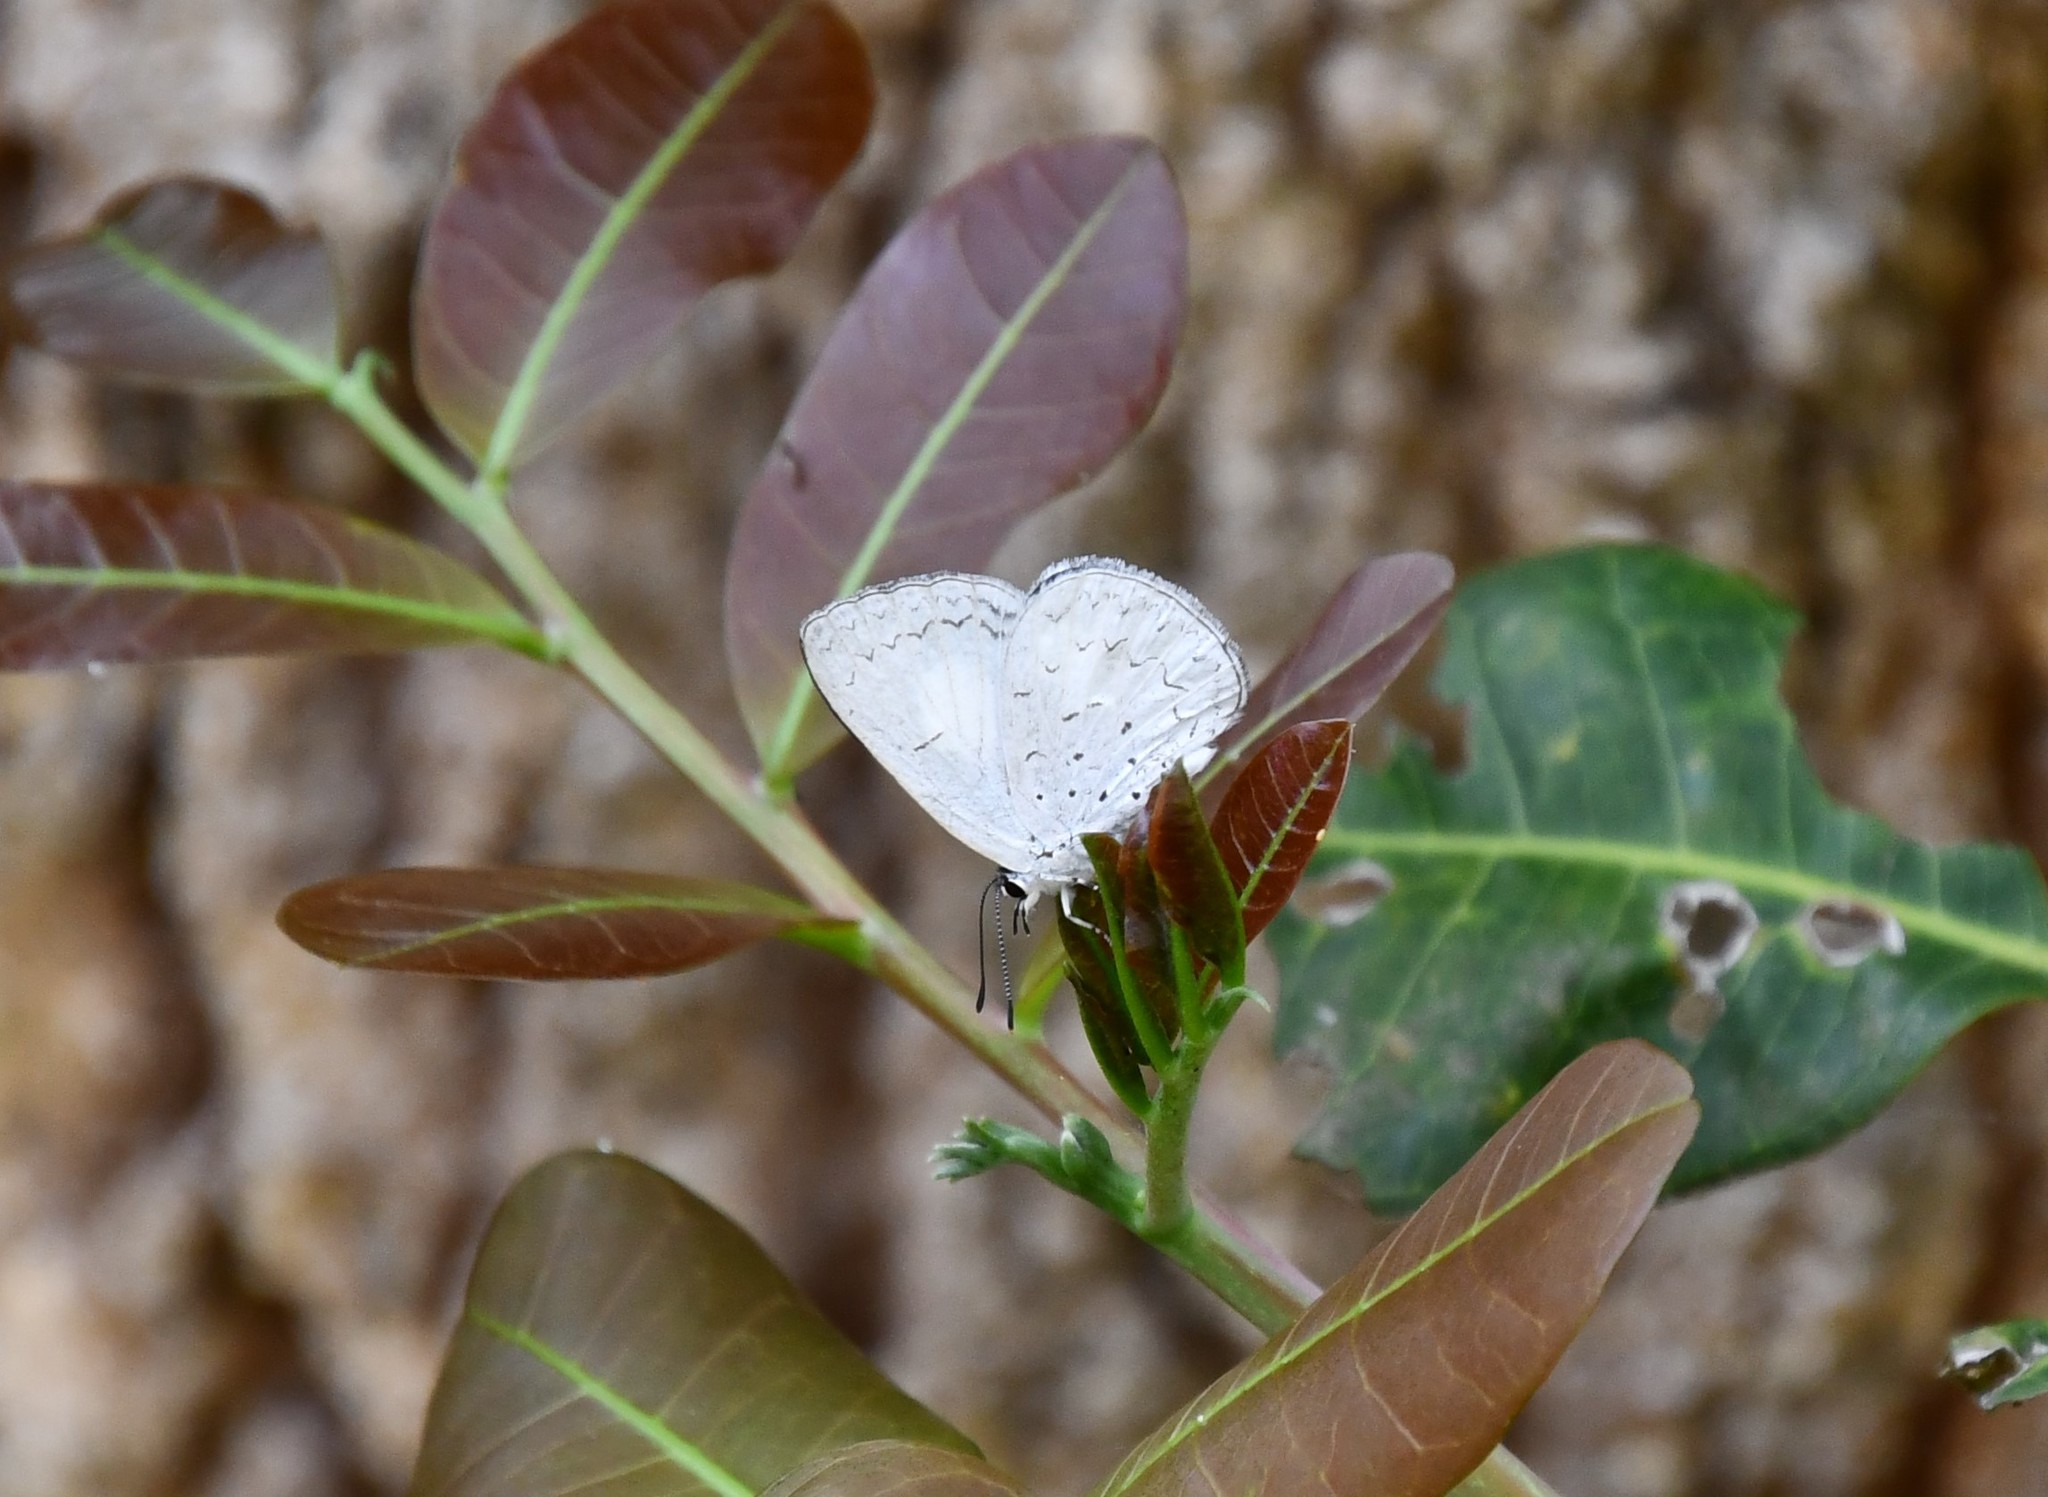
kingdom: Animalia
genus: Eirmocides
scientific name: Eirmocides
